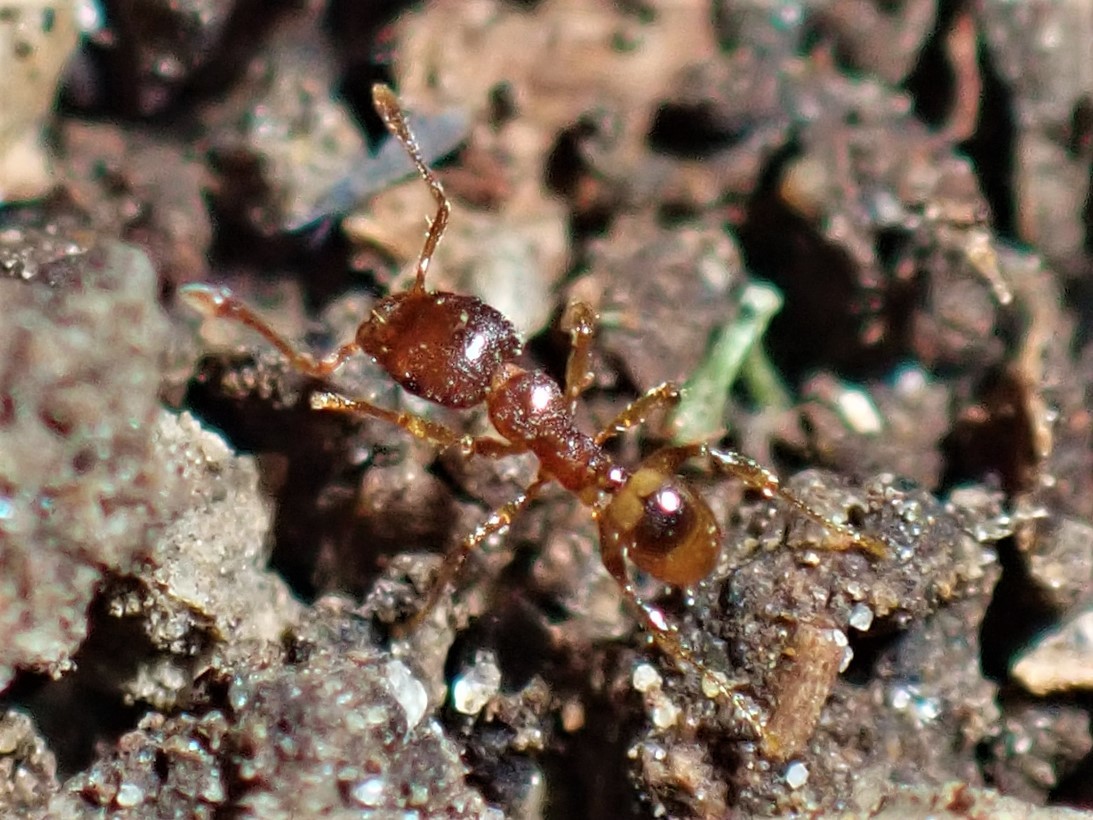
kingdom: Animalia
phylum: Arthropoda
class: Insecta
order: Hymenoptera
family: Formicidae
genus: Pheidole
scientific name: Pheidole rugosula
